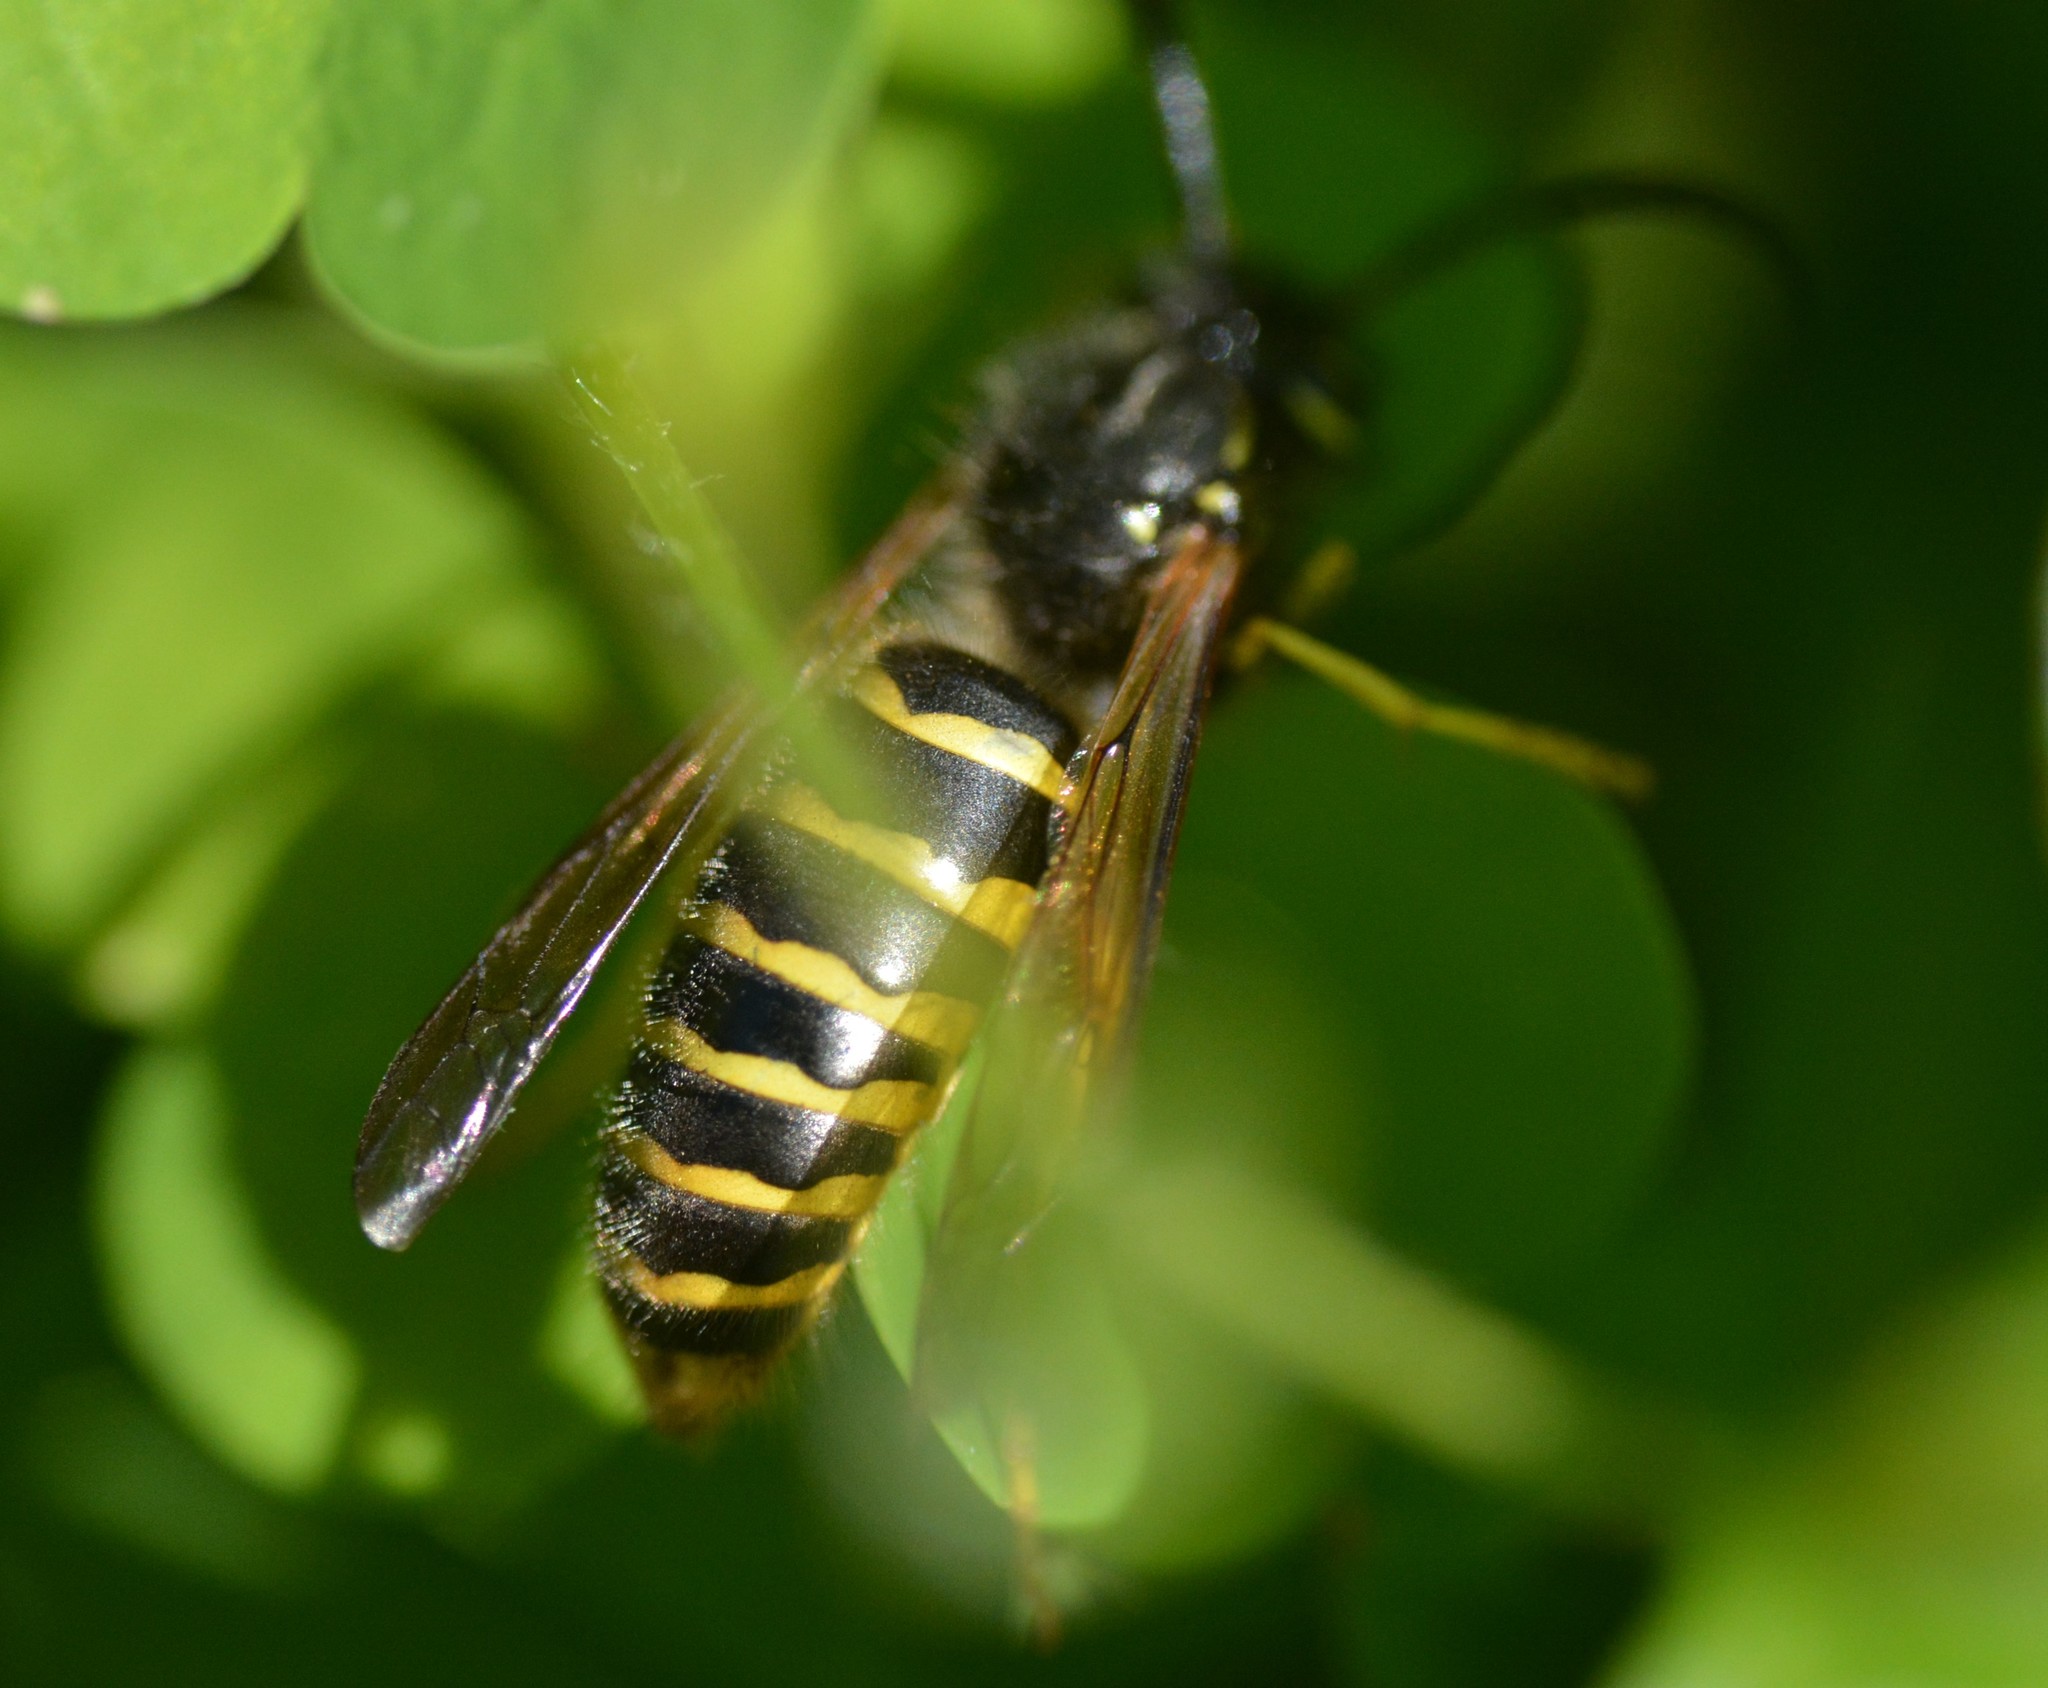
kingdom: Animalia
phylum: Arthropoda
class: Insecta
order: Hymenoptera
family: Vespidae
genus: Vespula
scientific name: Vespula alascensis
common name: Alaska yellowjacket
